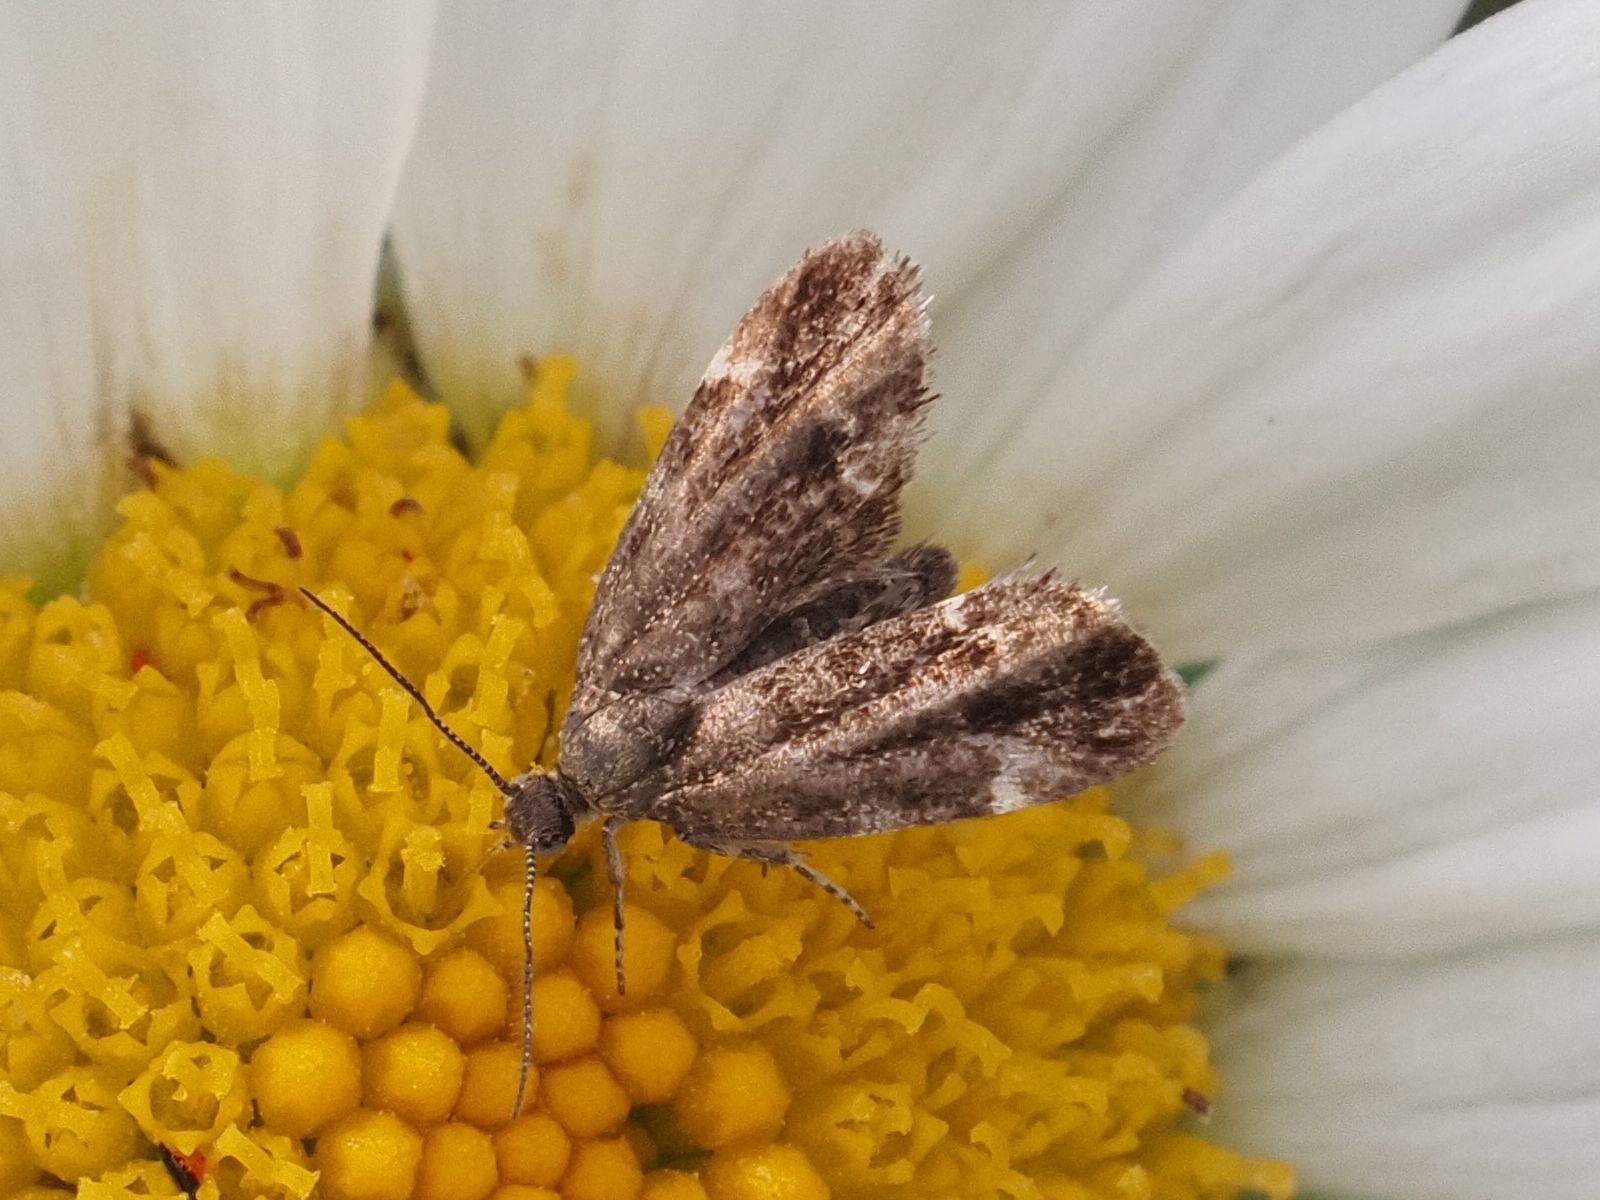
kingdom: Animalia
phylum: Arthropoda
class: Insecta
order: Lepidoptera
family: Choreutidae
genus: Anthophila
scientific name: Anthophila fabriciana
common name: Nettle-tap
